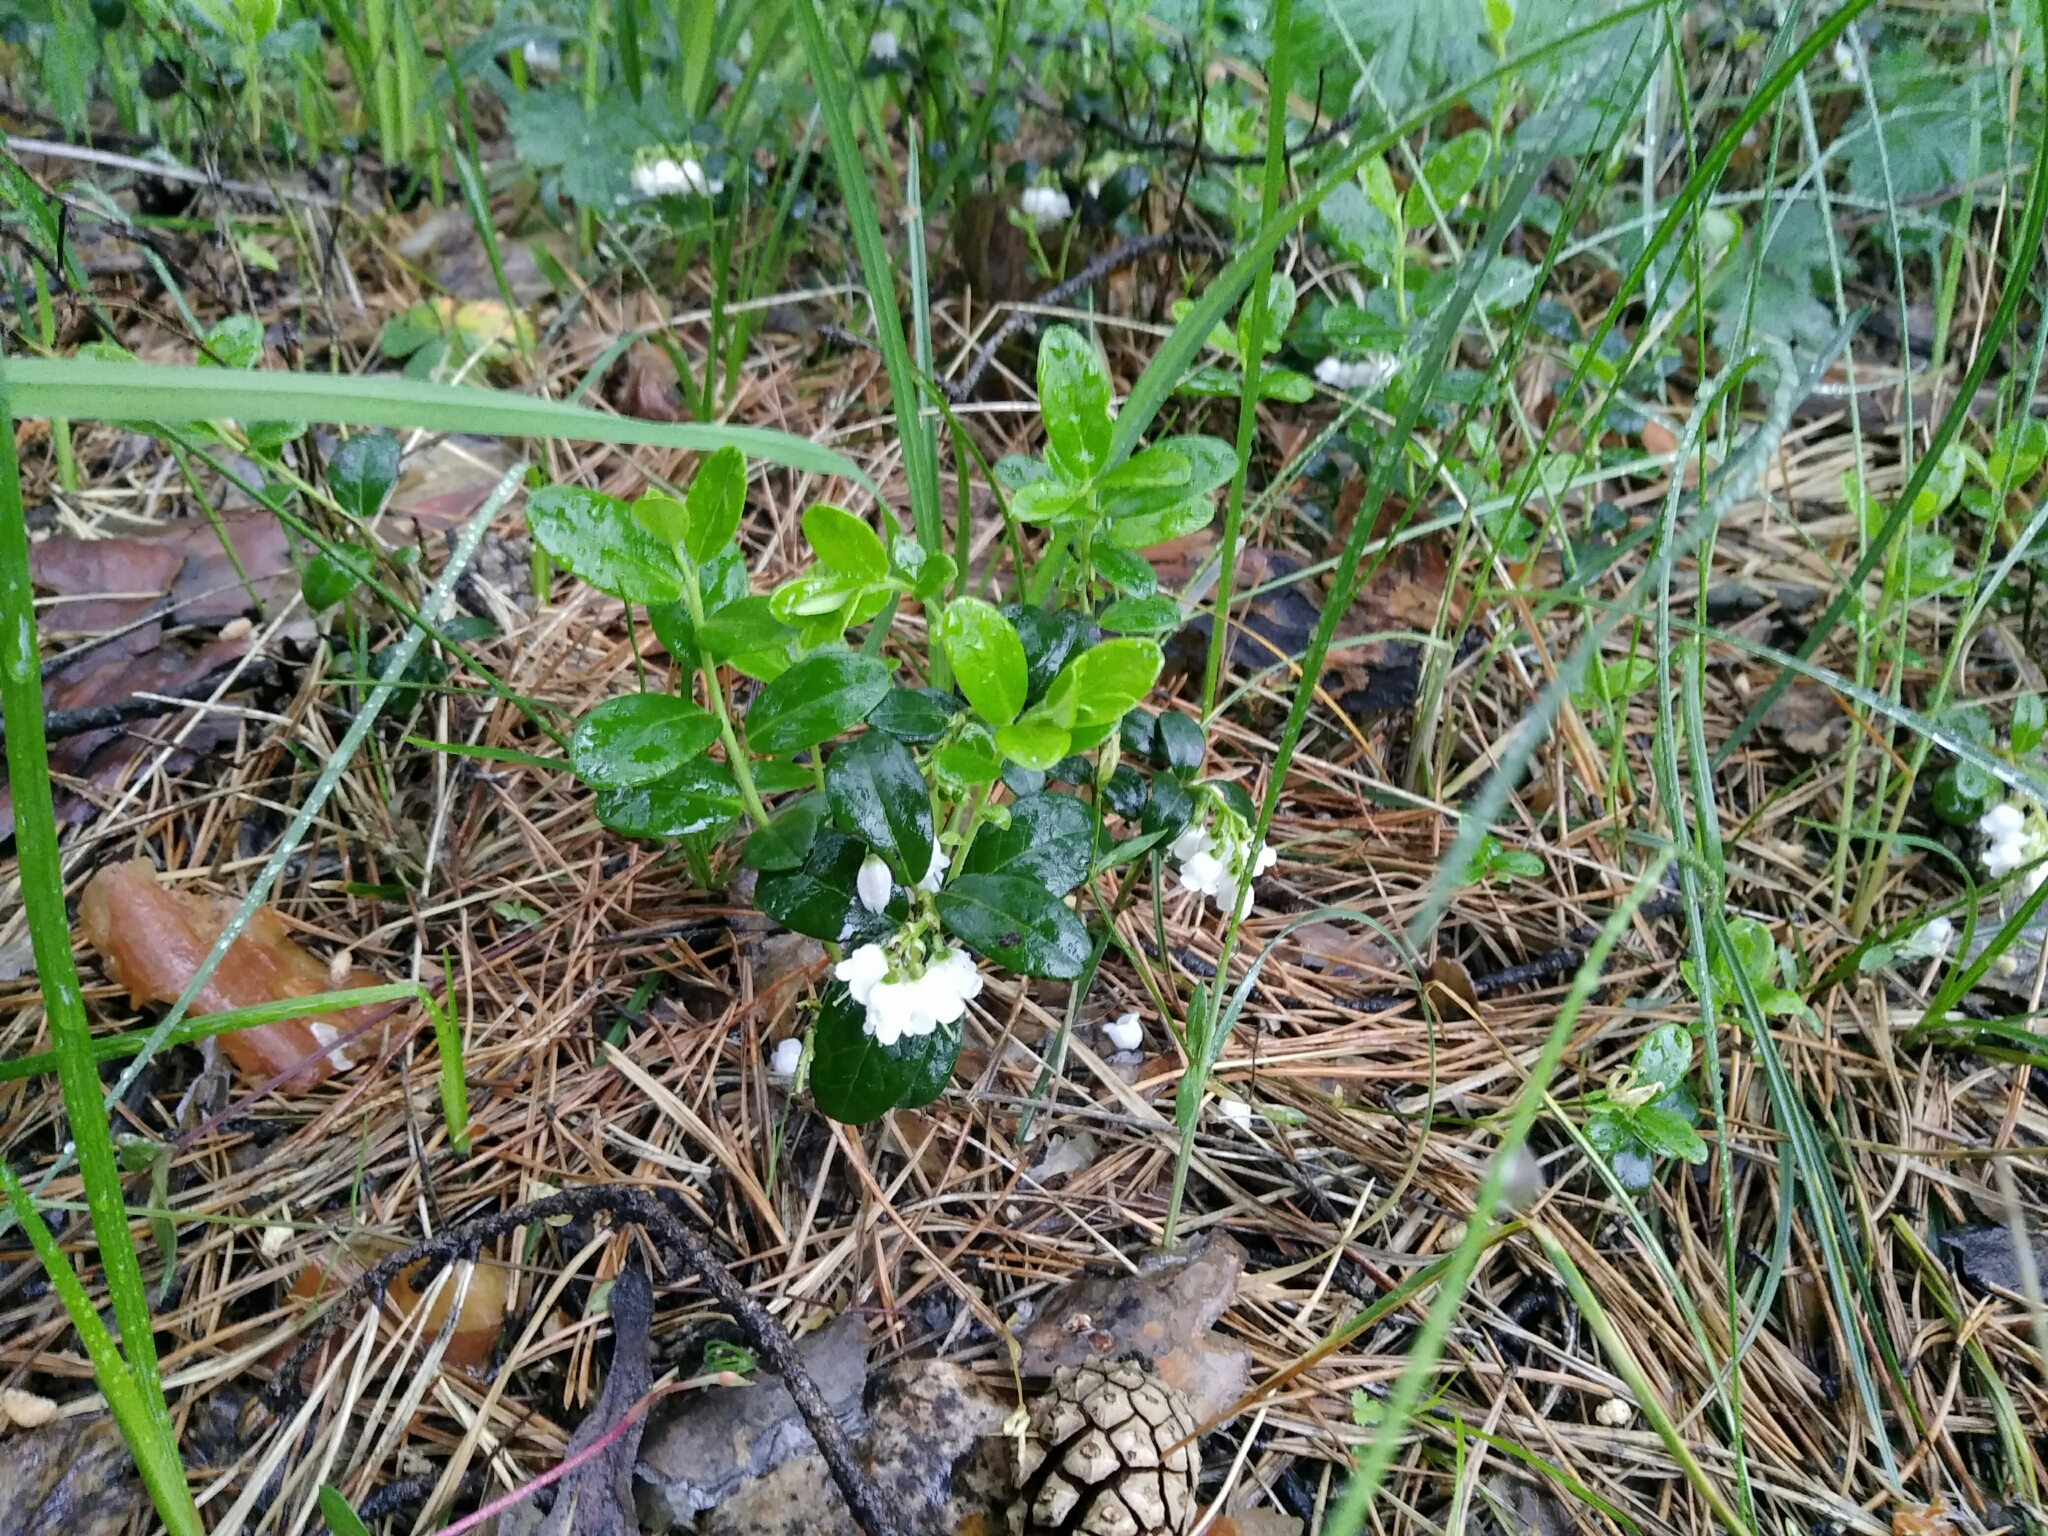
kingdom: Plantae
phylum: Tracheophyta
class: Magnoliopsida
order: Ericales
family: Ericaceae
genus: Vaccinium
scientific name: Vaccinium vitis-idaea
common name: Cowberry
